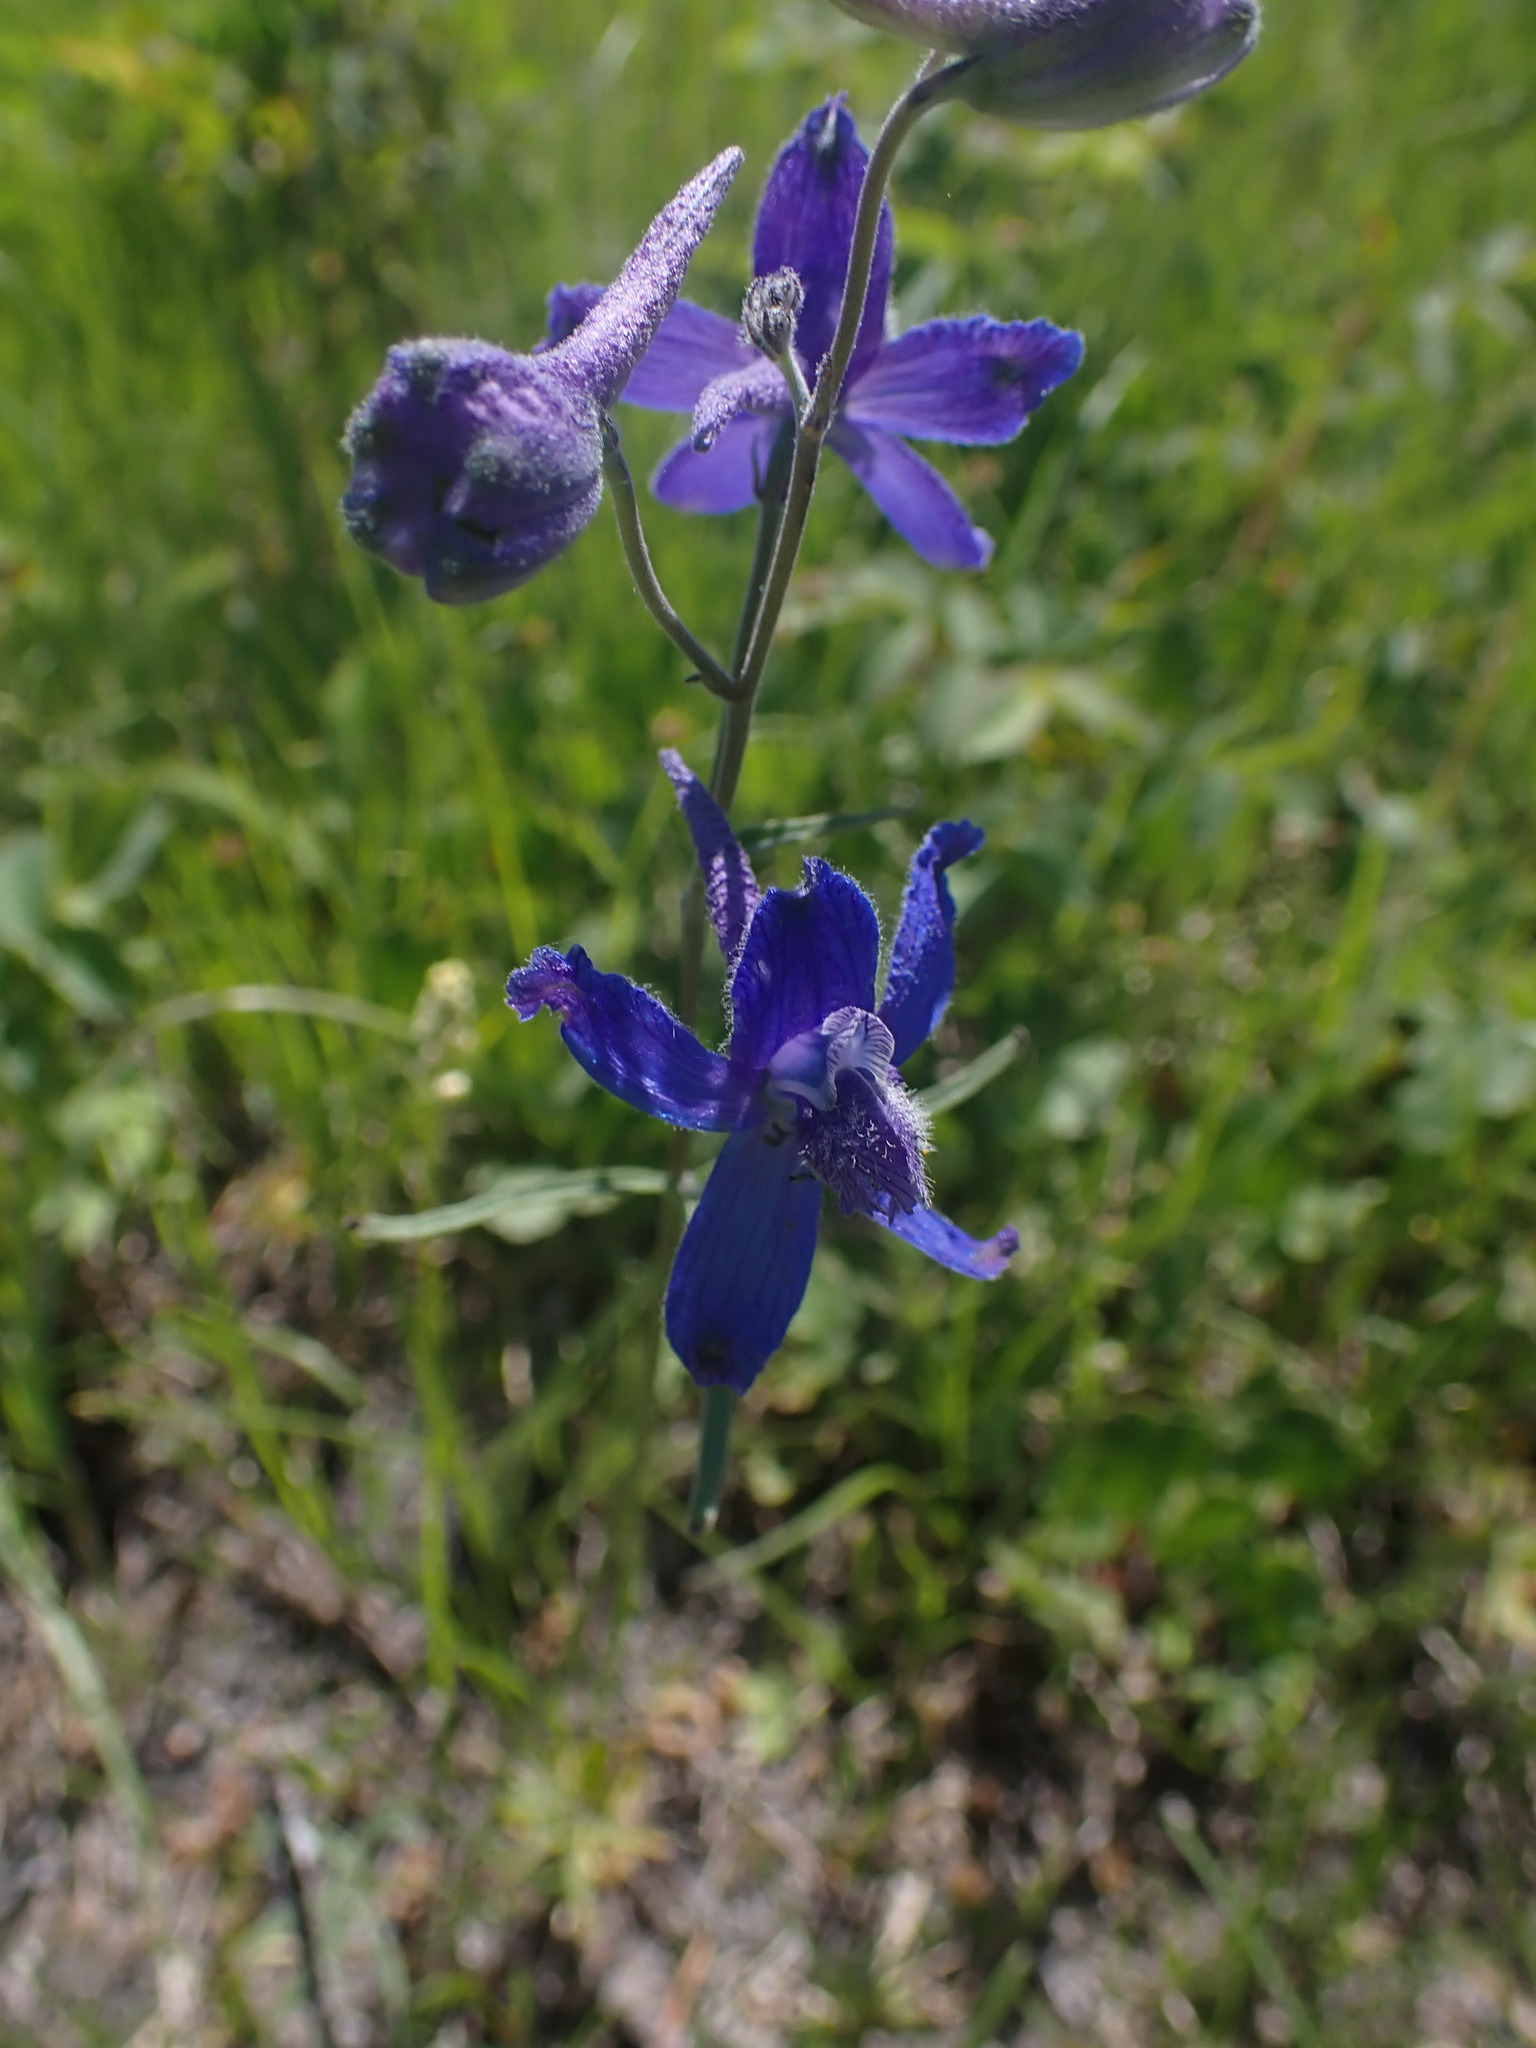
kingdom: Plantae
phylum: Tracheophyta
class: Magnoliopsida
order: Ranunculales
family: Ranunculaceae
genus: Delphinium
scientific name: Delphinium nuttallianum
